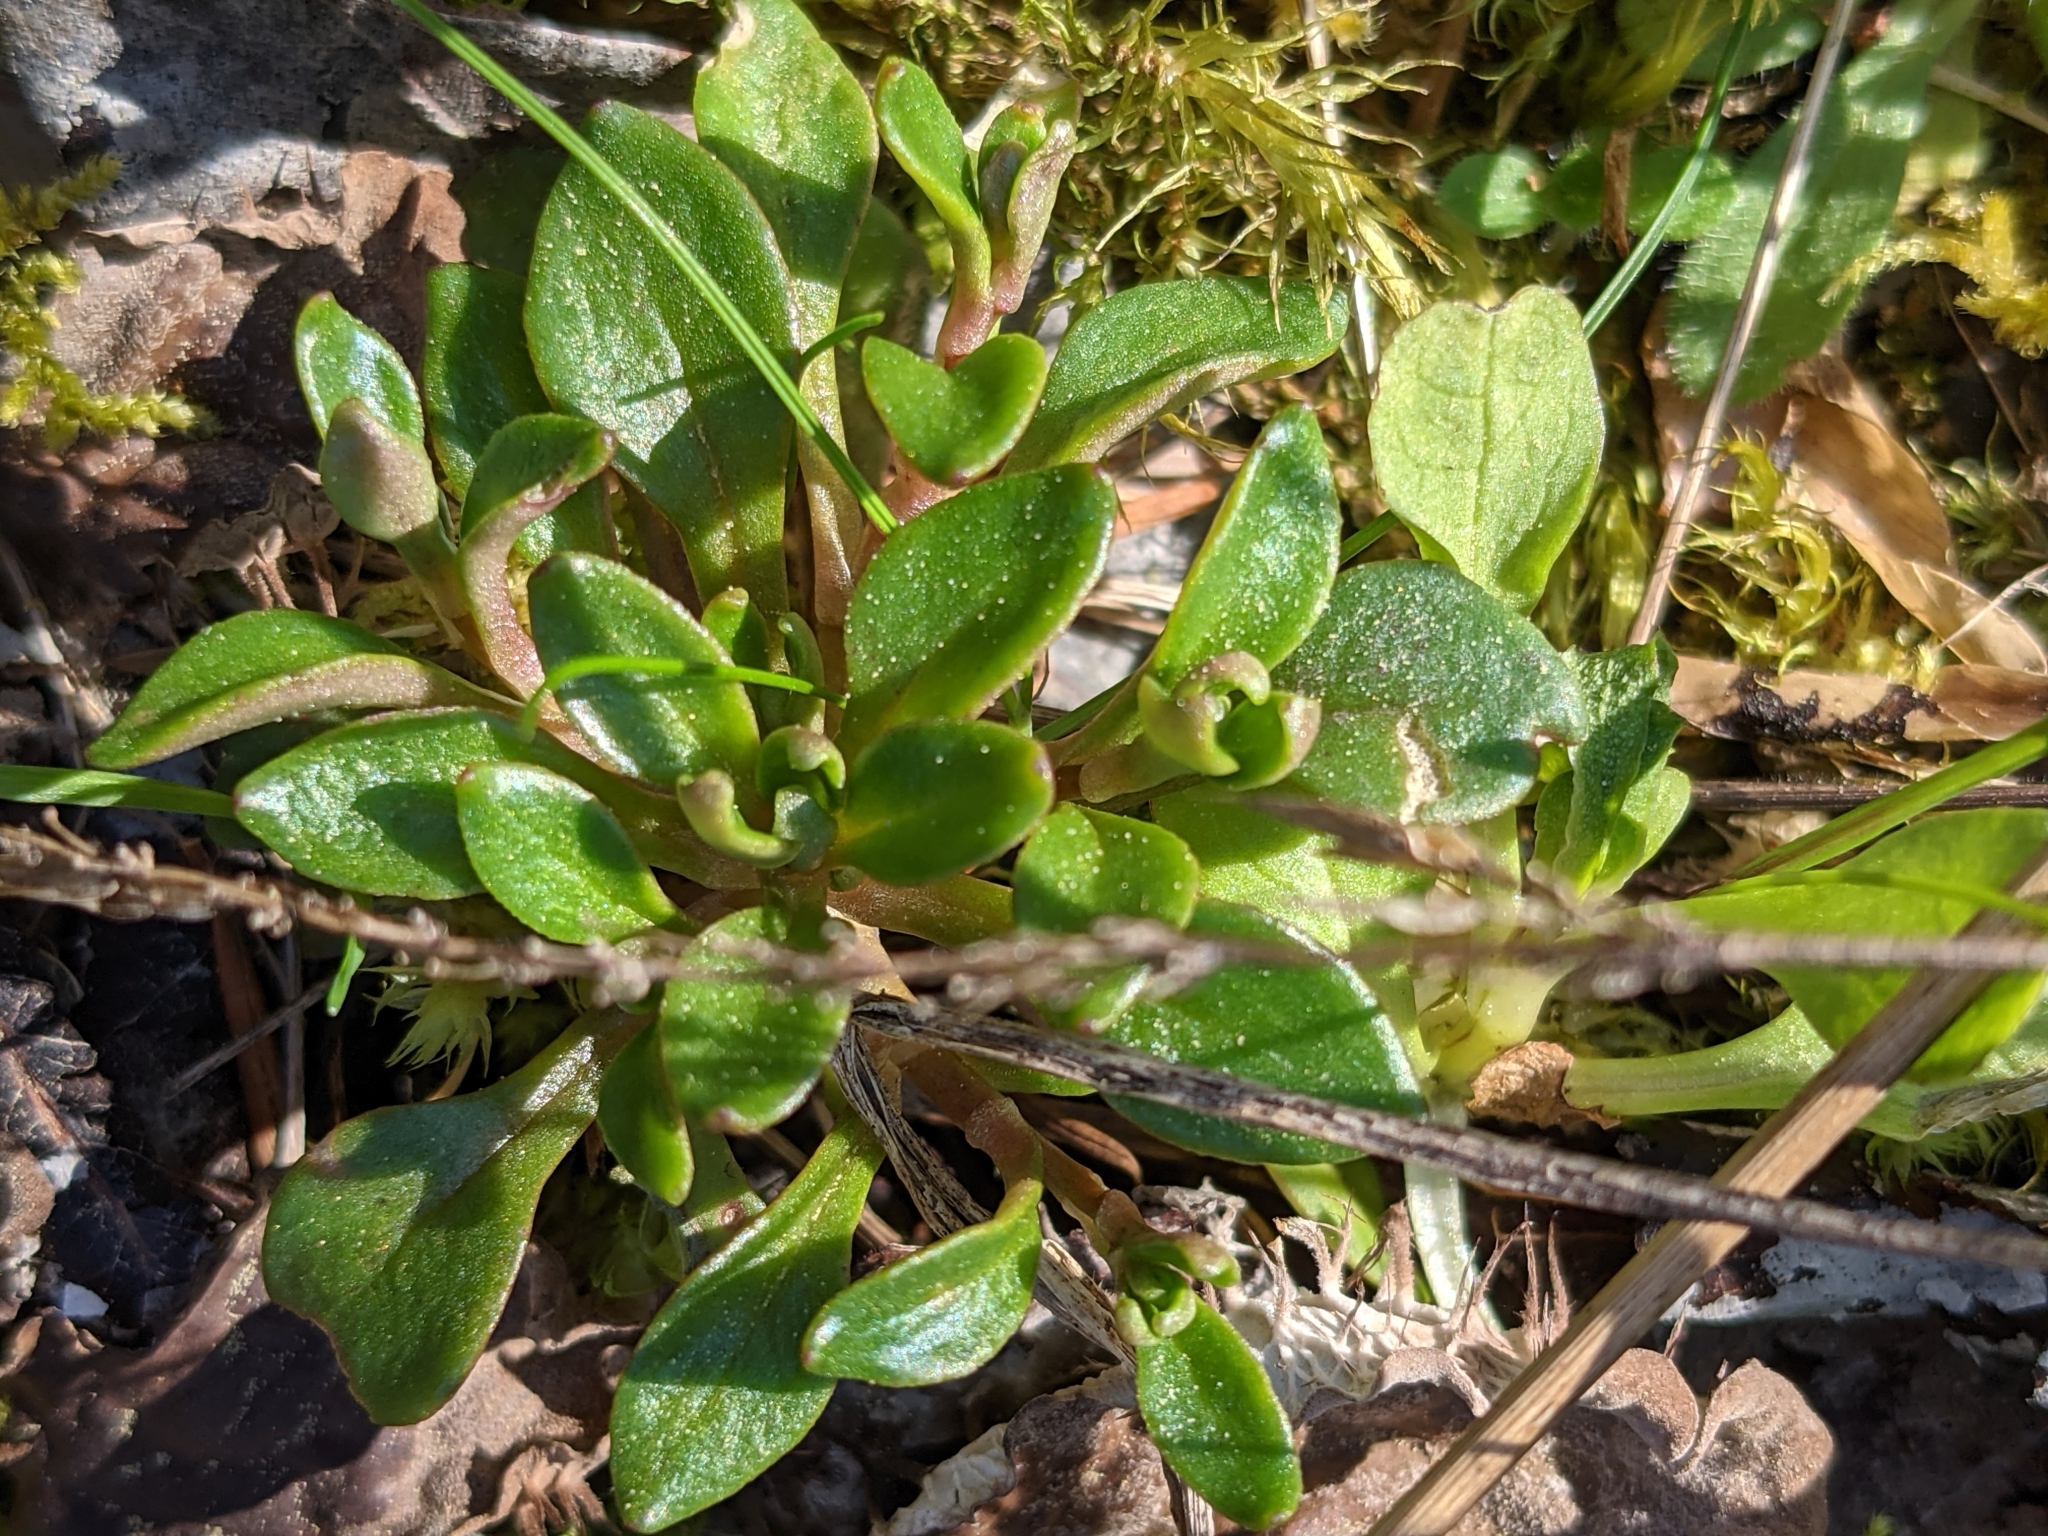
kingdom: Plantae
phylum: Tracheophyta
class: Magnoliopsida
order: Caryophyllales
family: Montiaceae
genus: Montia
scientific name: Montia parvifolia
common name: Small-leaved blinks
